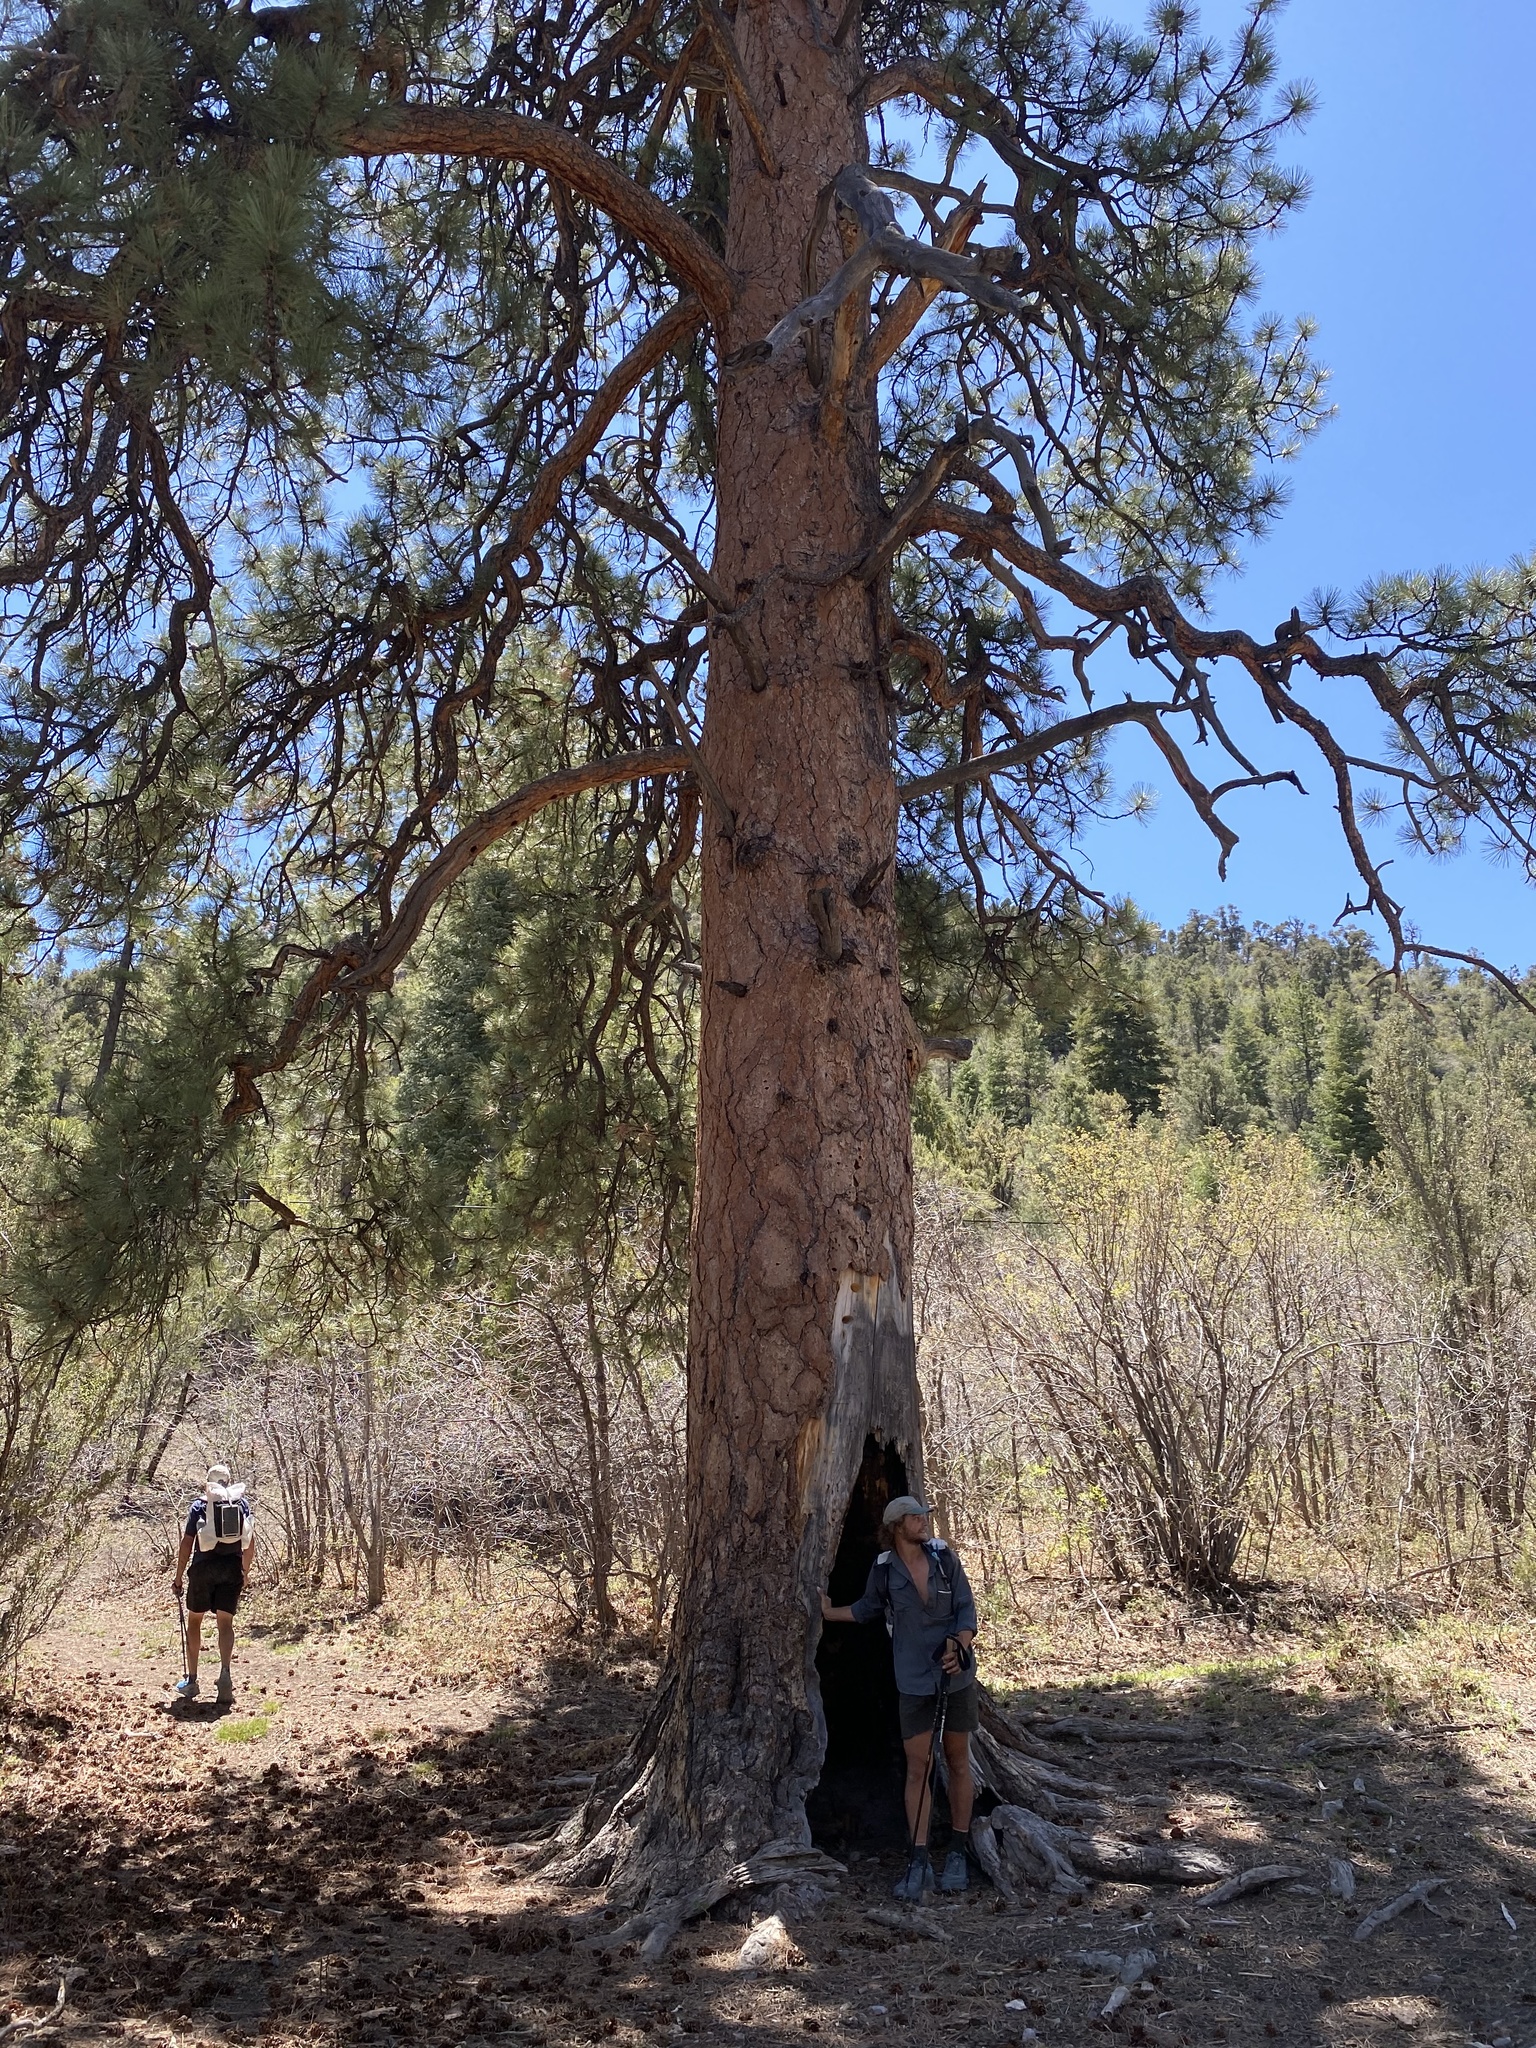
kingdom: Plantae
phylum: Tracheophyta
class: Pinopsida
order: Pinales
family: Pinaceae
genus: Pinus
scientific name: Pinus ponderosa
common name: Western yellow-pine
